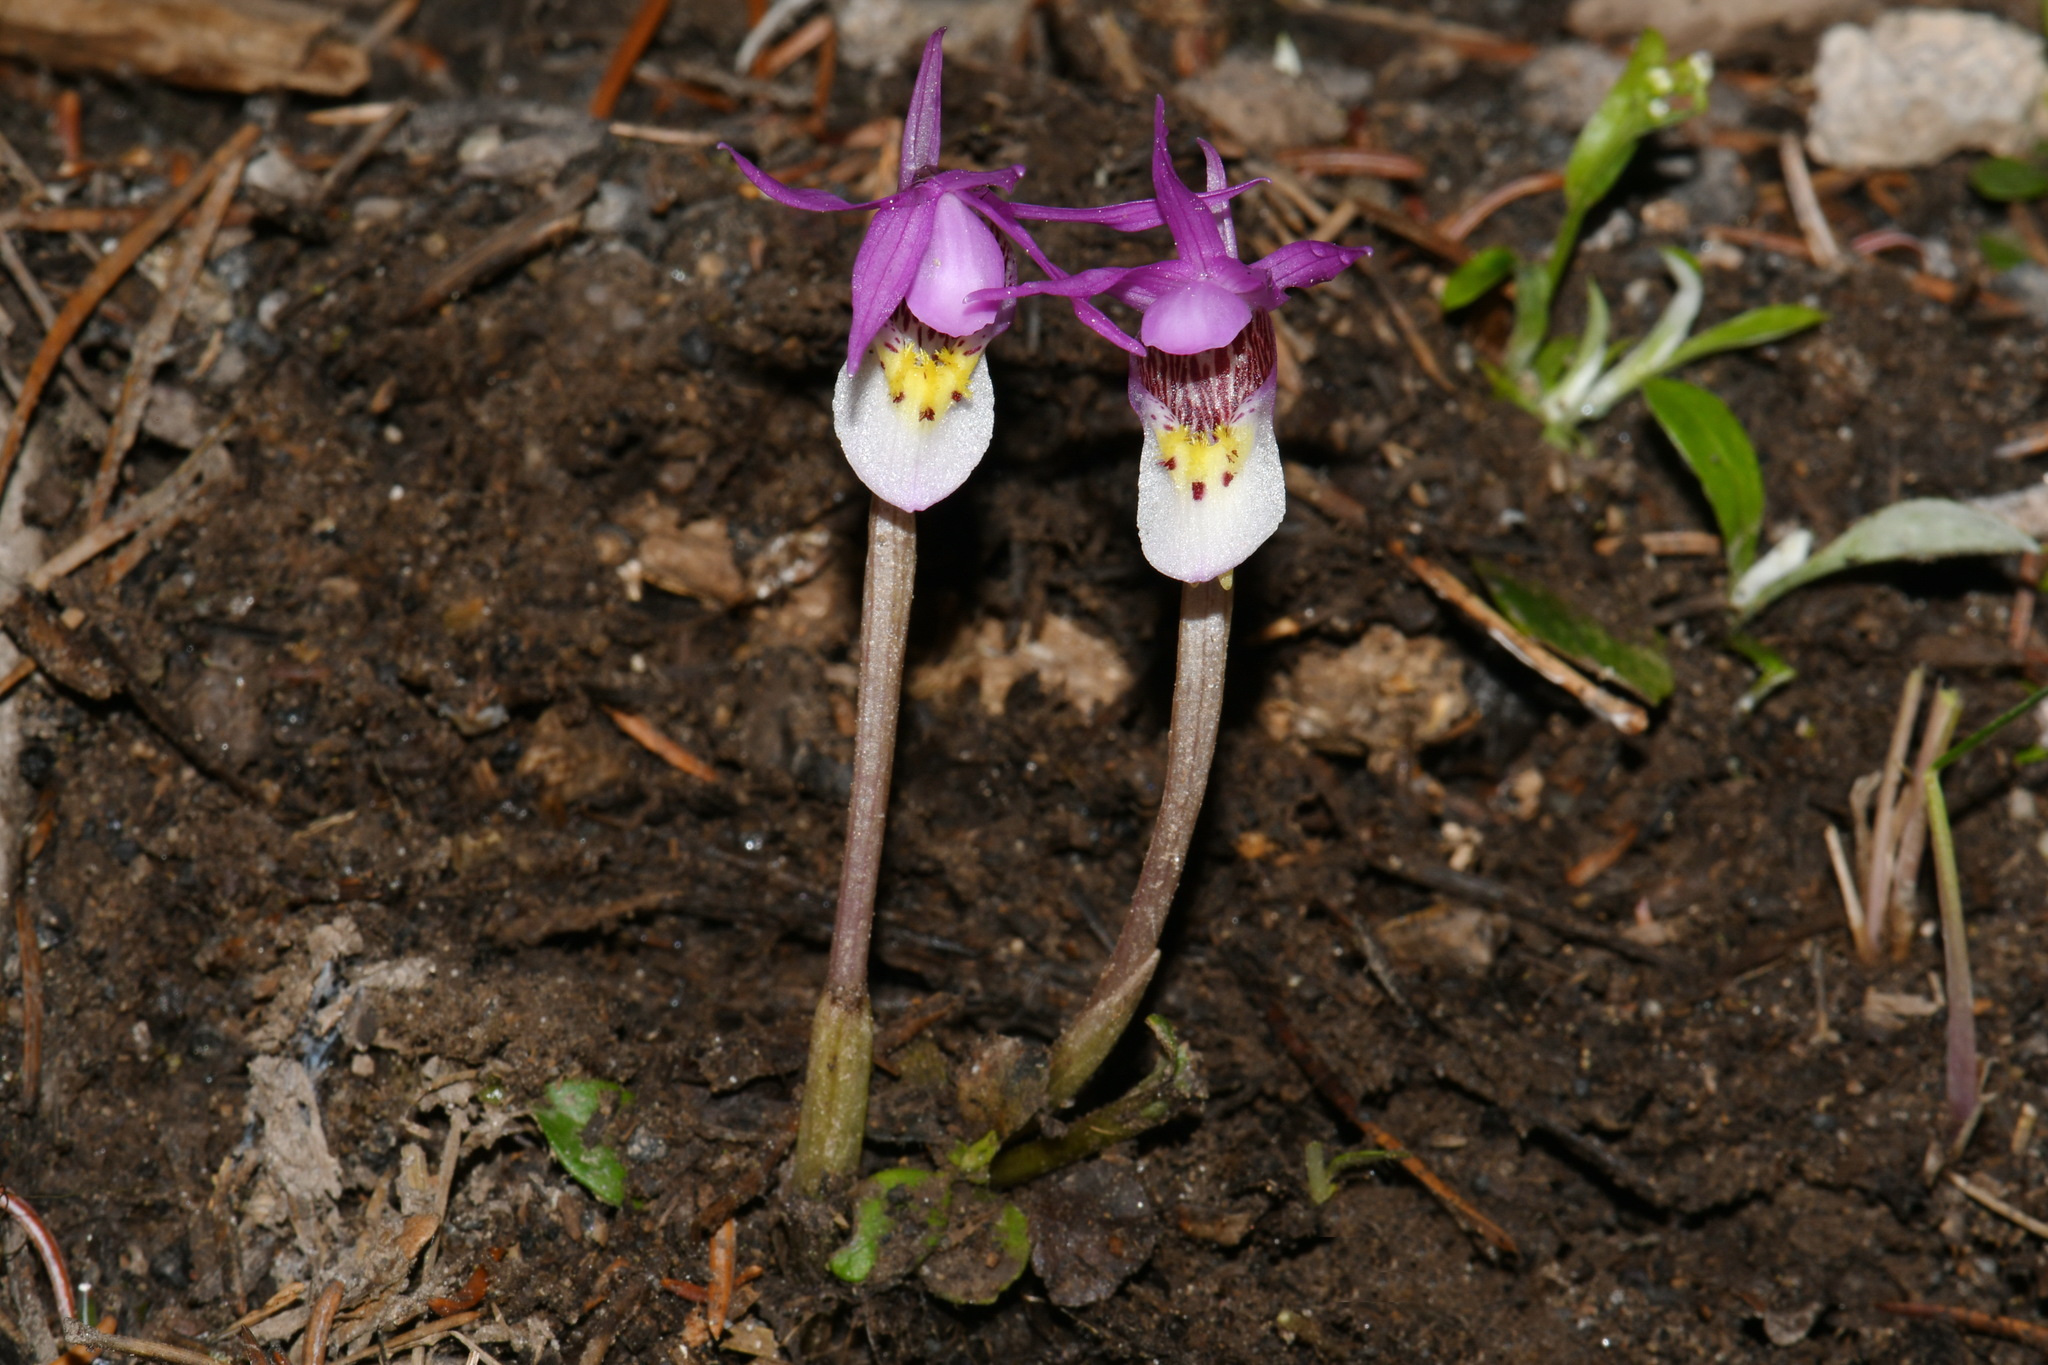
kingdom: Plantae
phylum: Tracheophyta
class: Liliopsida
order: Asparagales
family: Orchidaceae
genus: Calypso
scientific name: Calypso bulbosa
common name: Calypso
